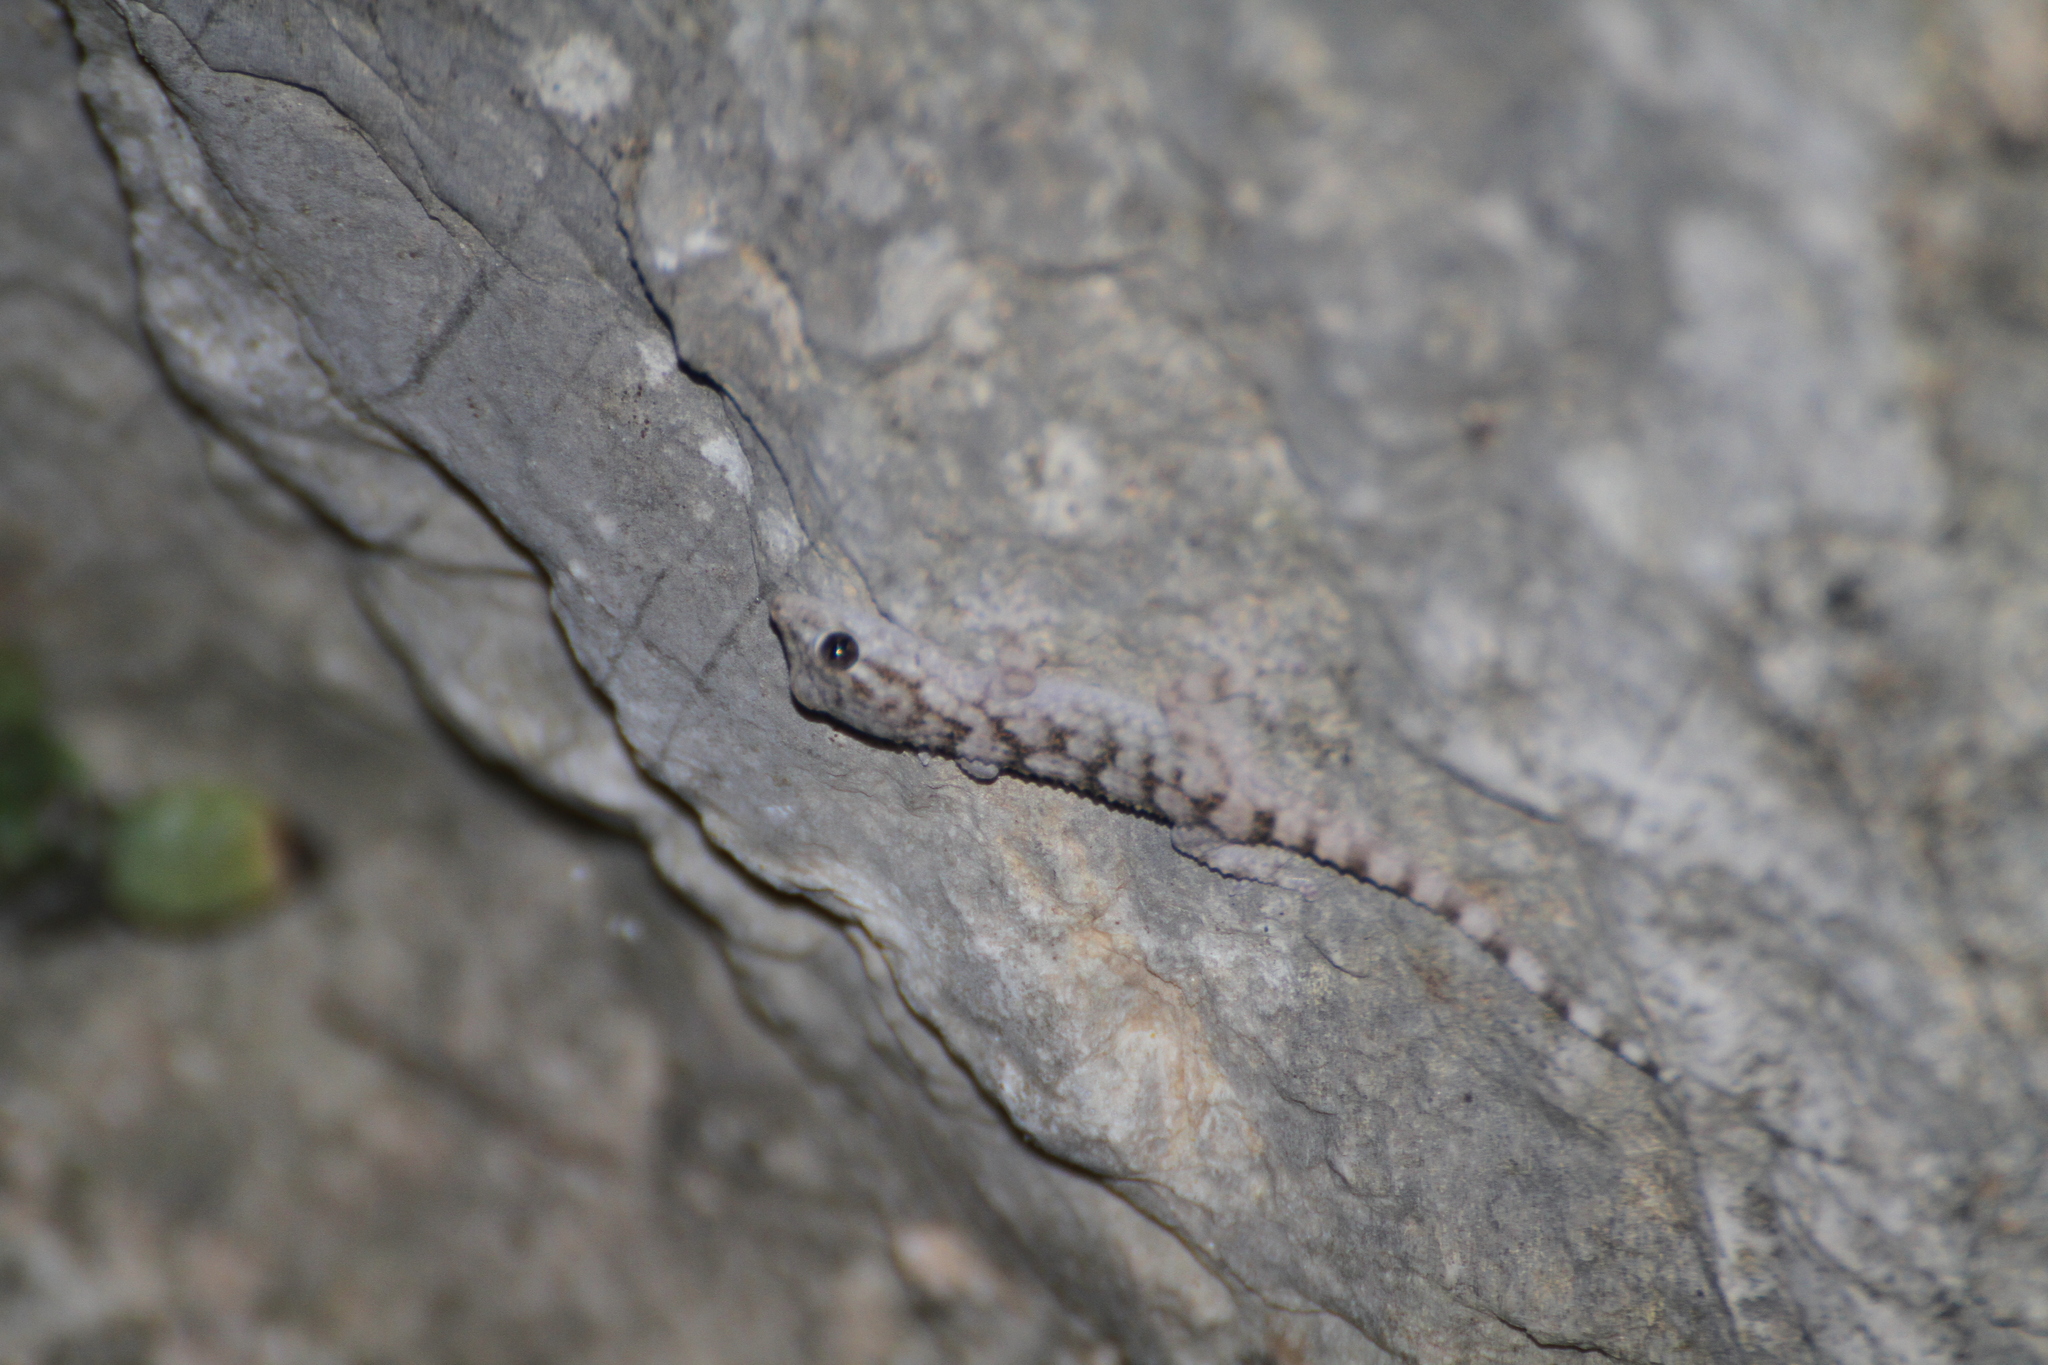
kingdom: Animalia
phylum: Chordata
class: Squamata
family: Phyllodactylidae
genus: Tarentola
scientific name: Tarentola mauritanica
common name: Moorish gecko
